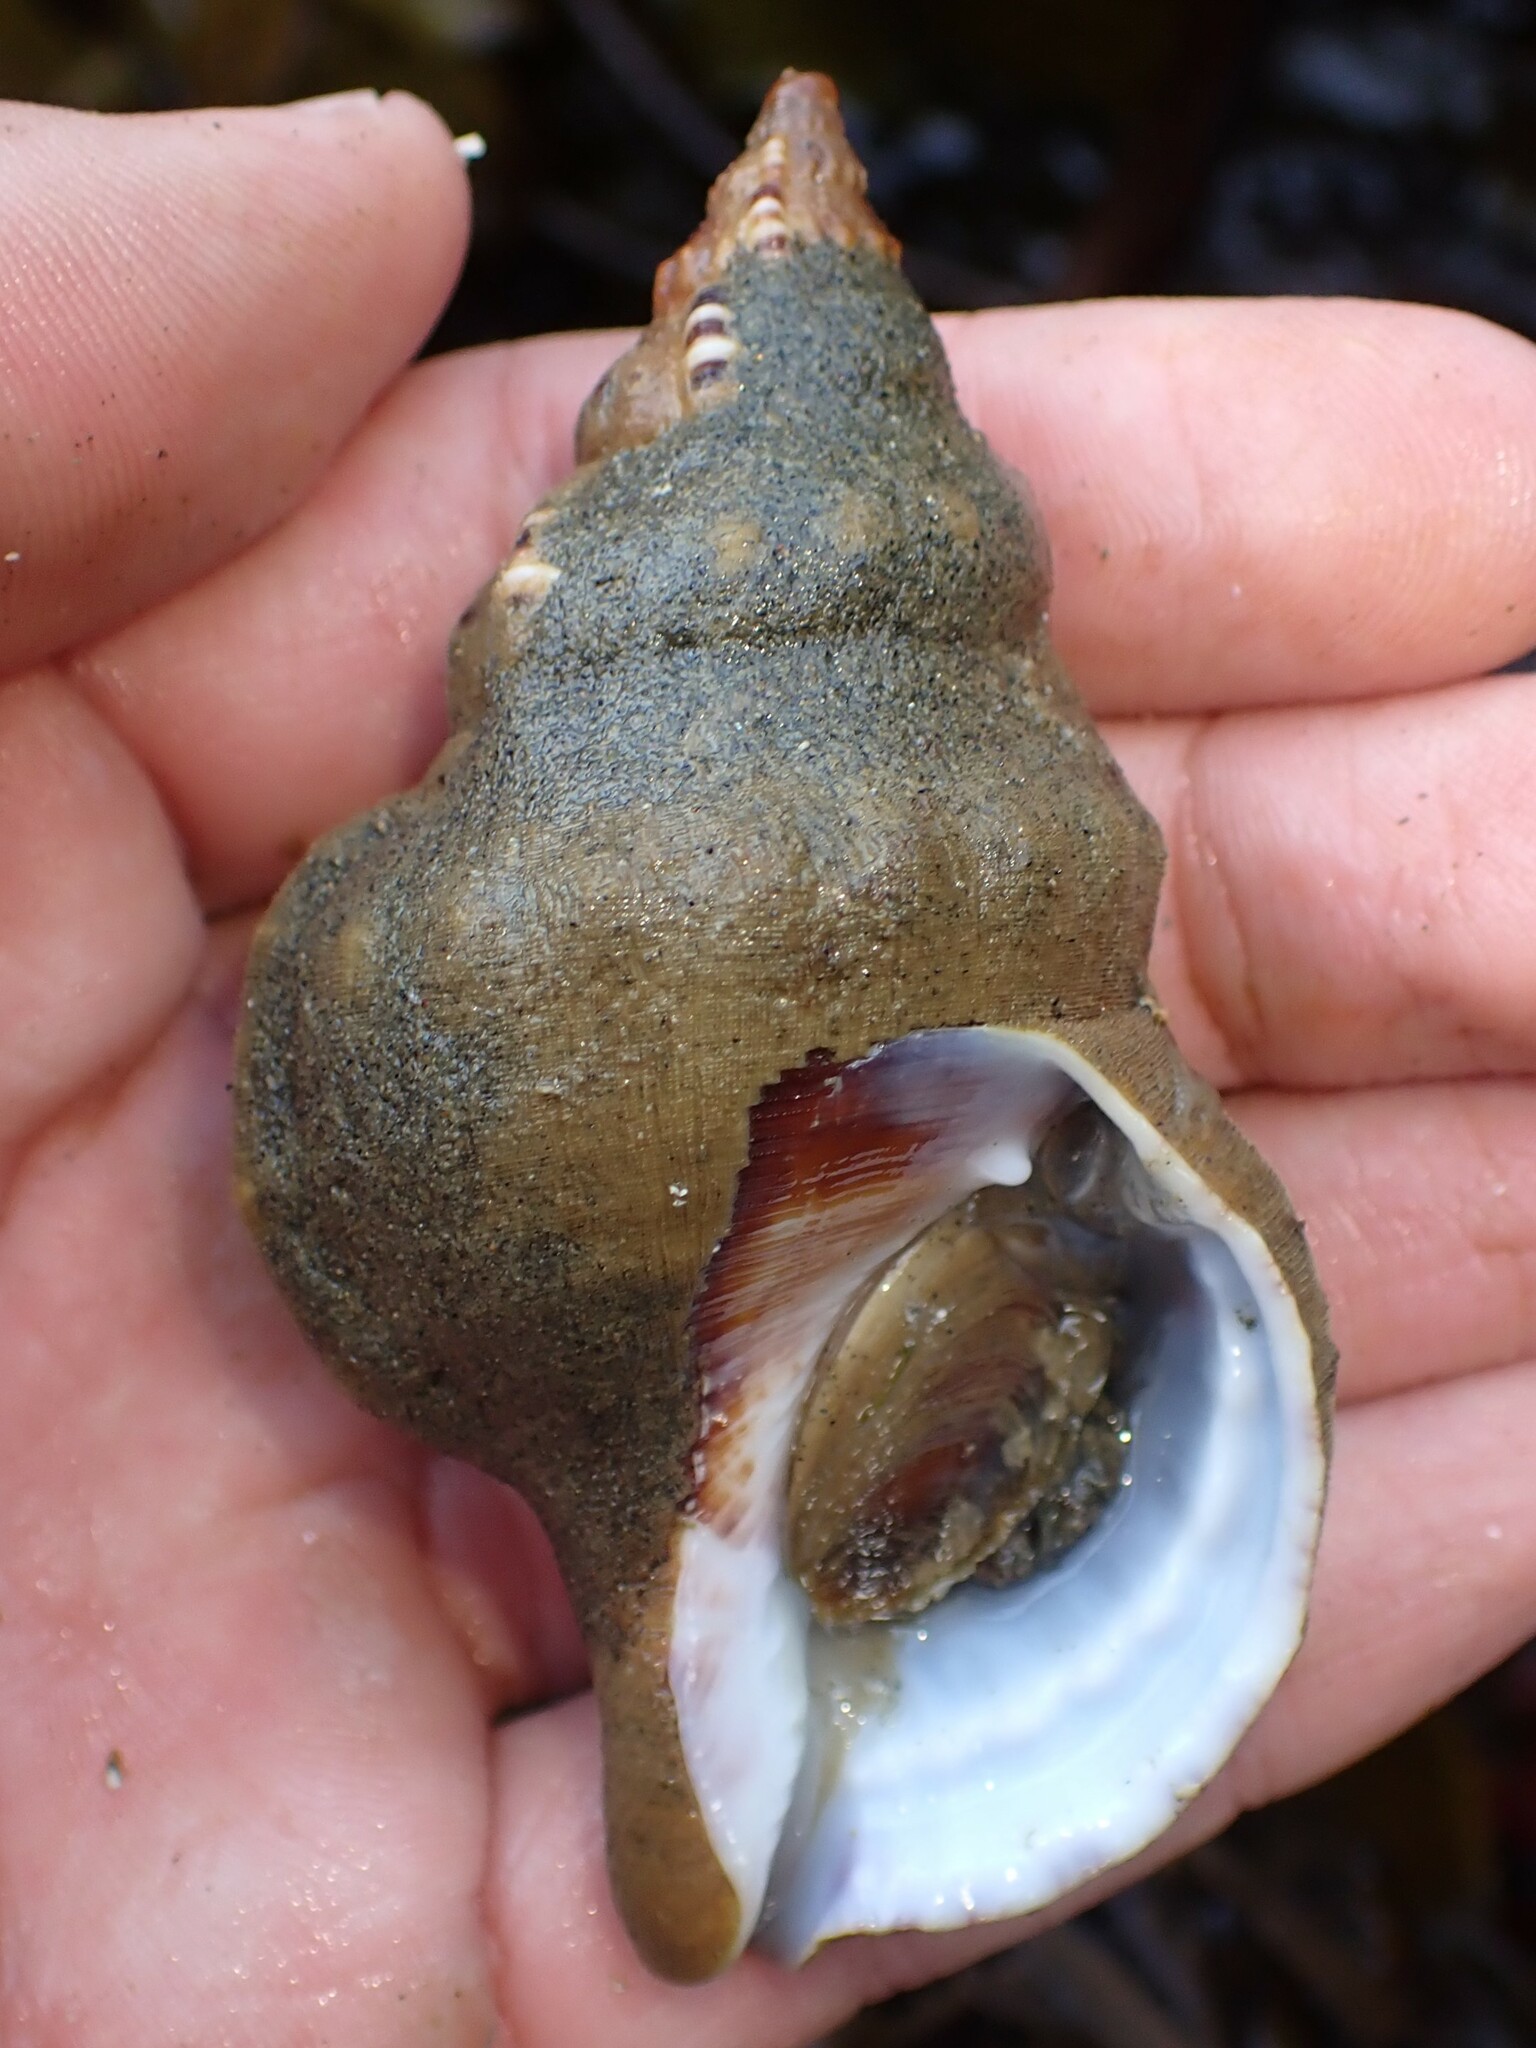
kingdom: Animalia
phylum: Mollusca
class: Gastropoda
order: Littorinimorpha
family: Ranellidae
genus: Ranella
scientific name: Ranella australasia
